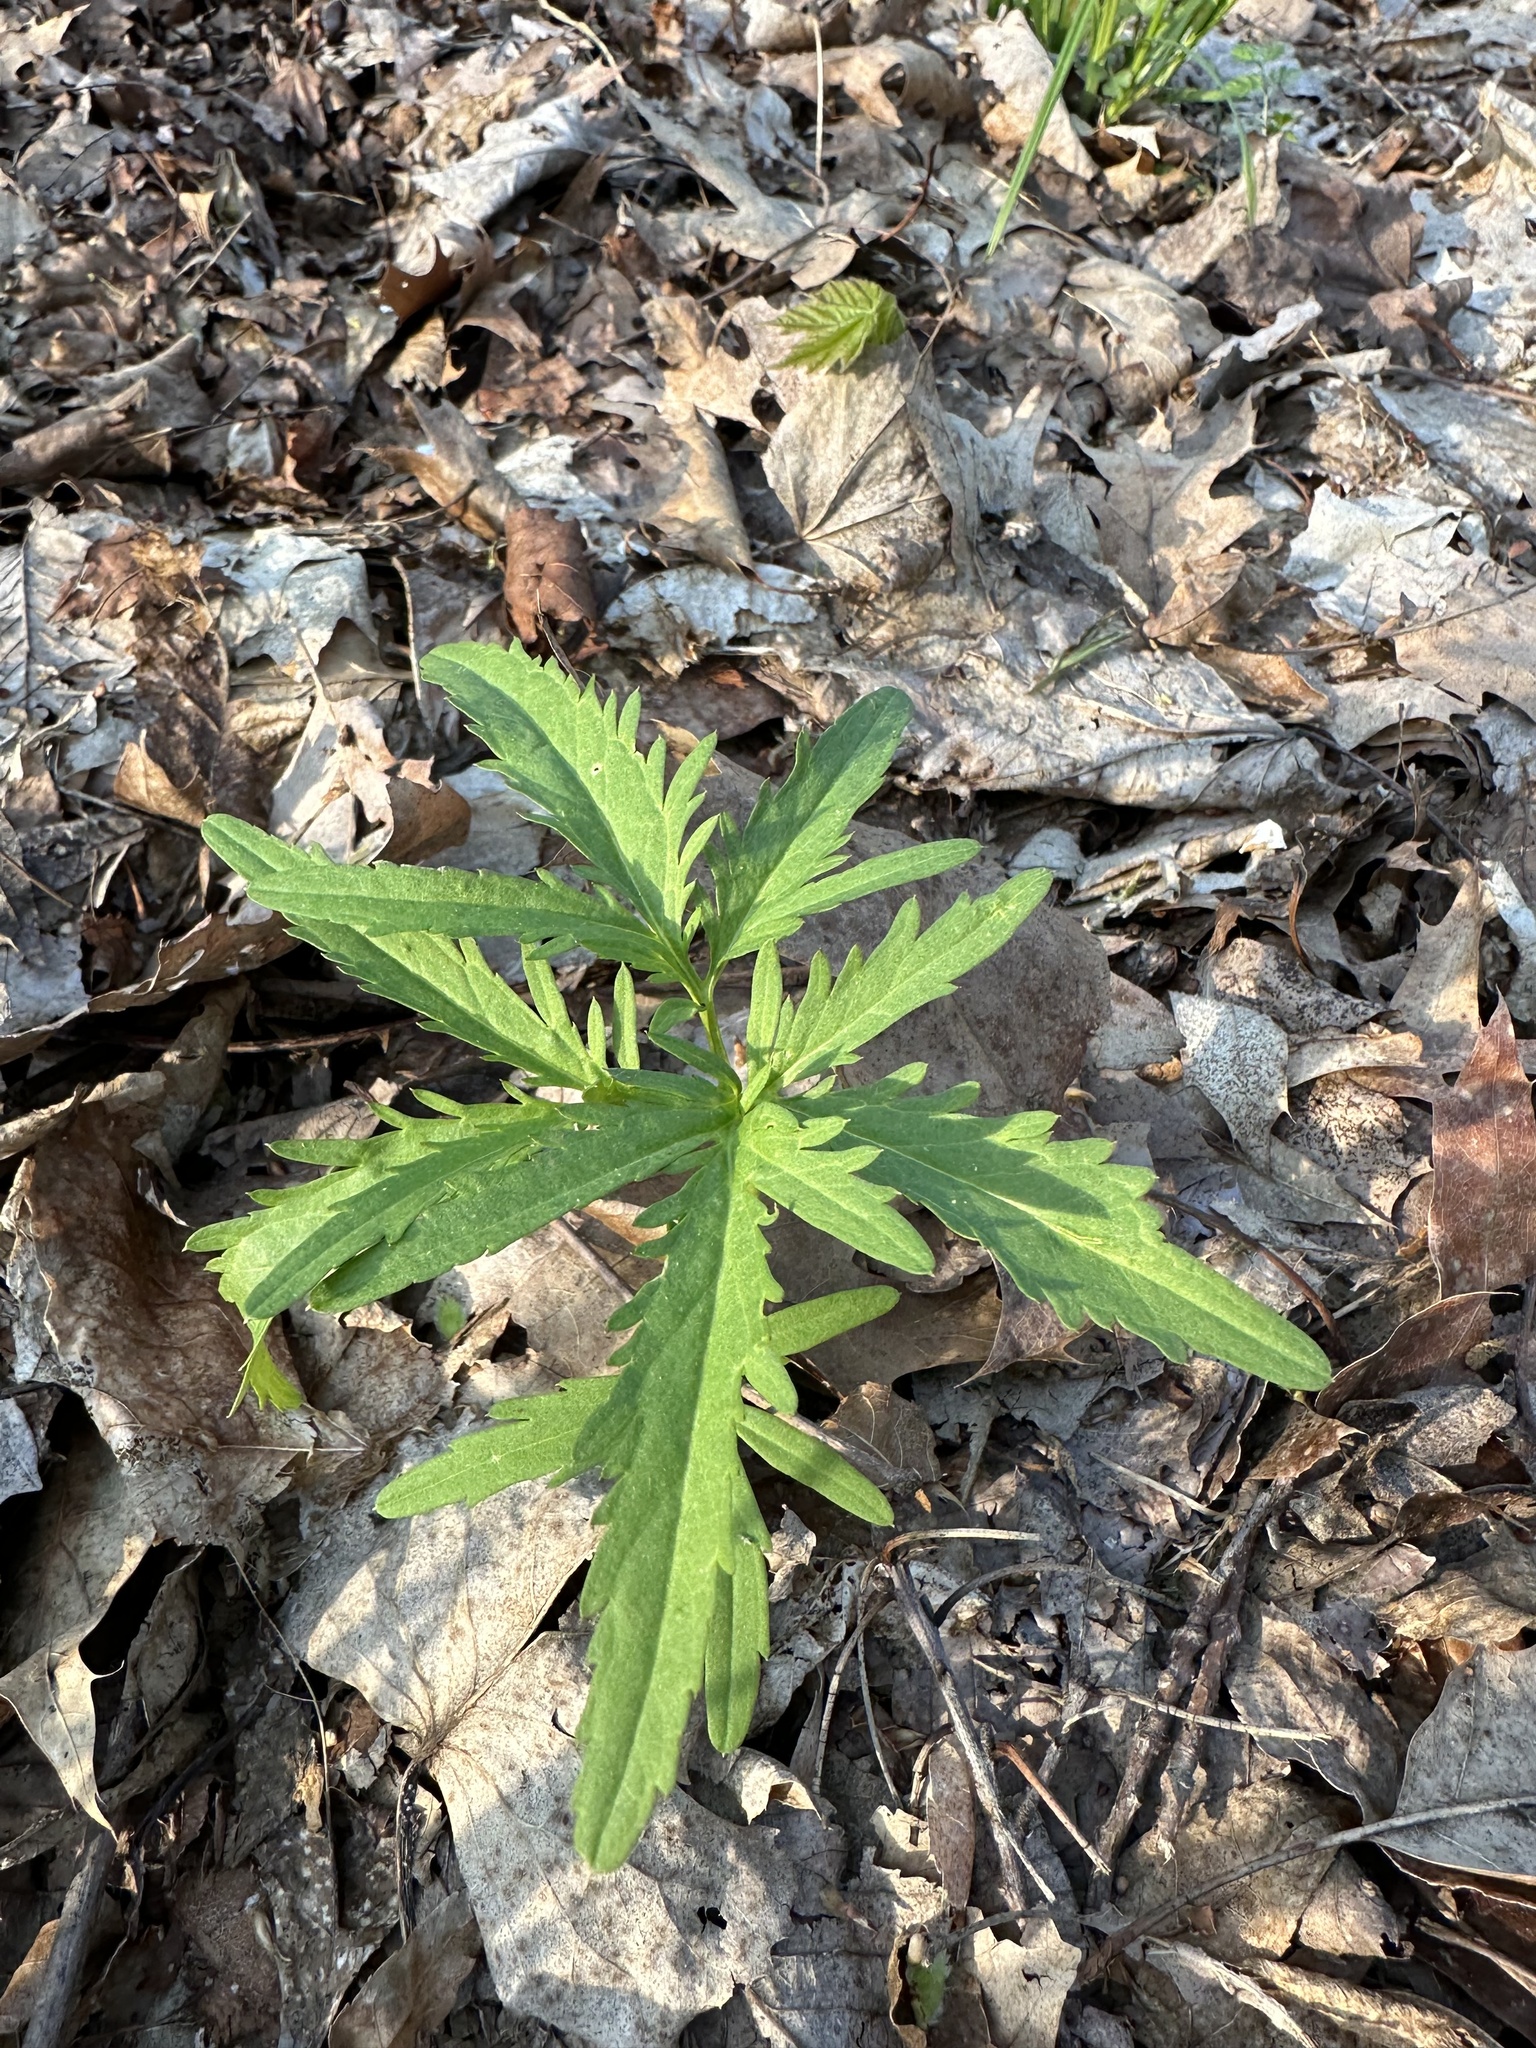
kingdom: Plantae
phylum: Tracheophyta
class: Magnoliopsida
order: Brassicales
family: Brassicaceae
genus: Cardamine
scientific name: Cardamine concatenata
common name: Cut-leaf toothcup
